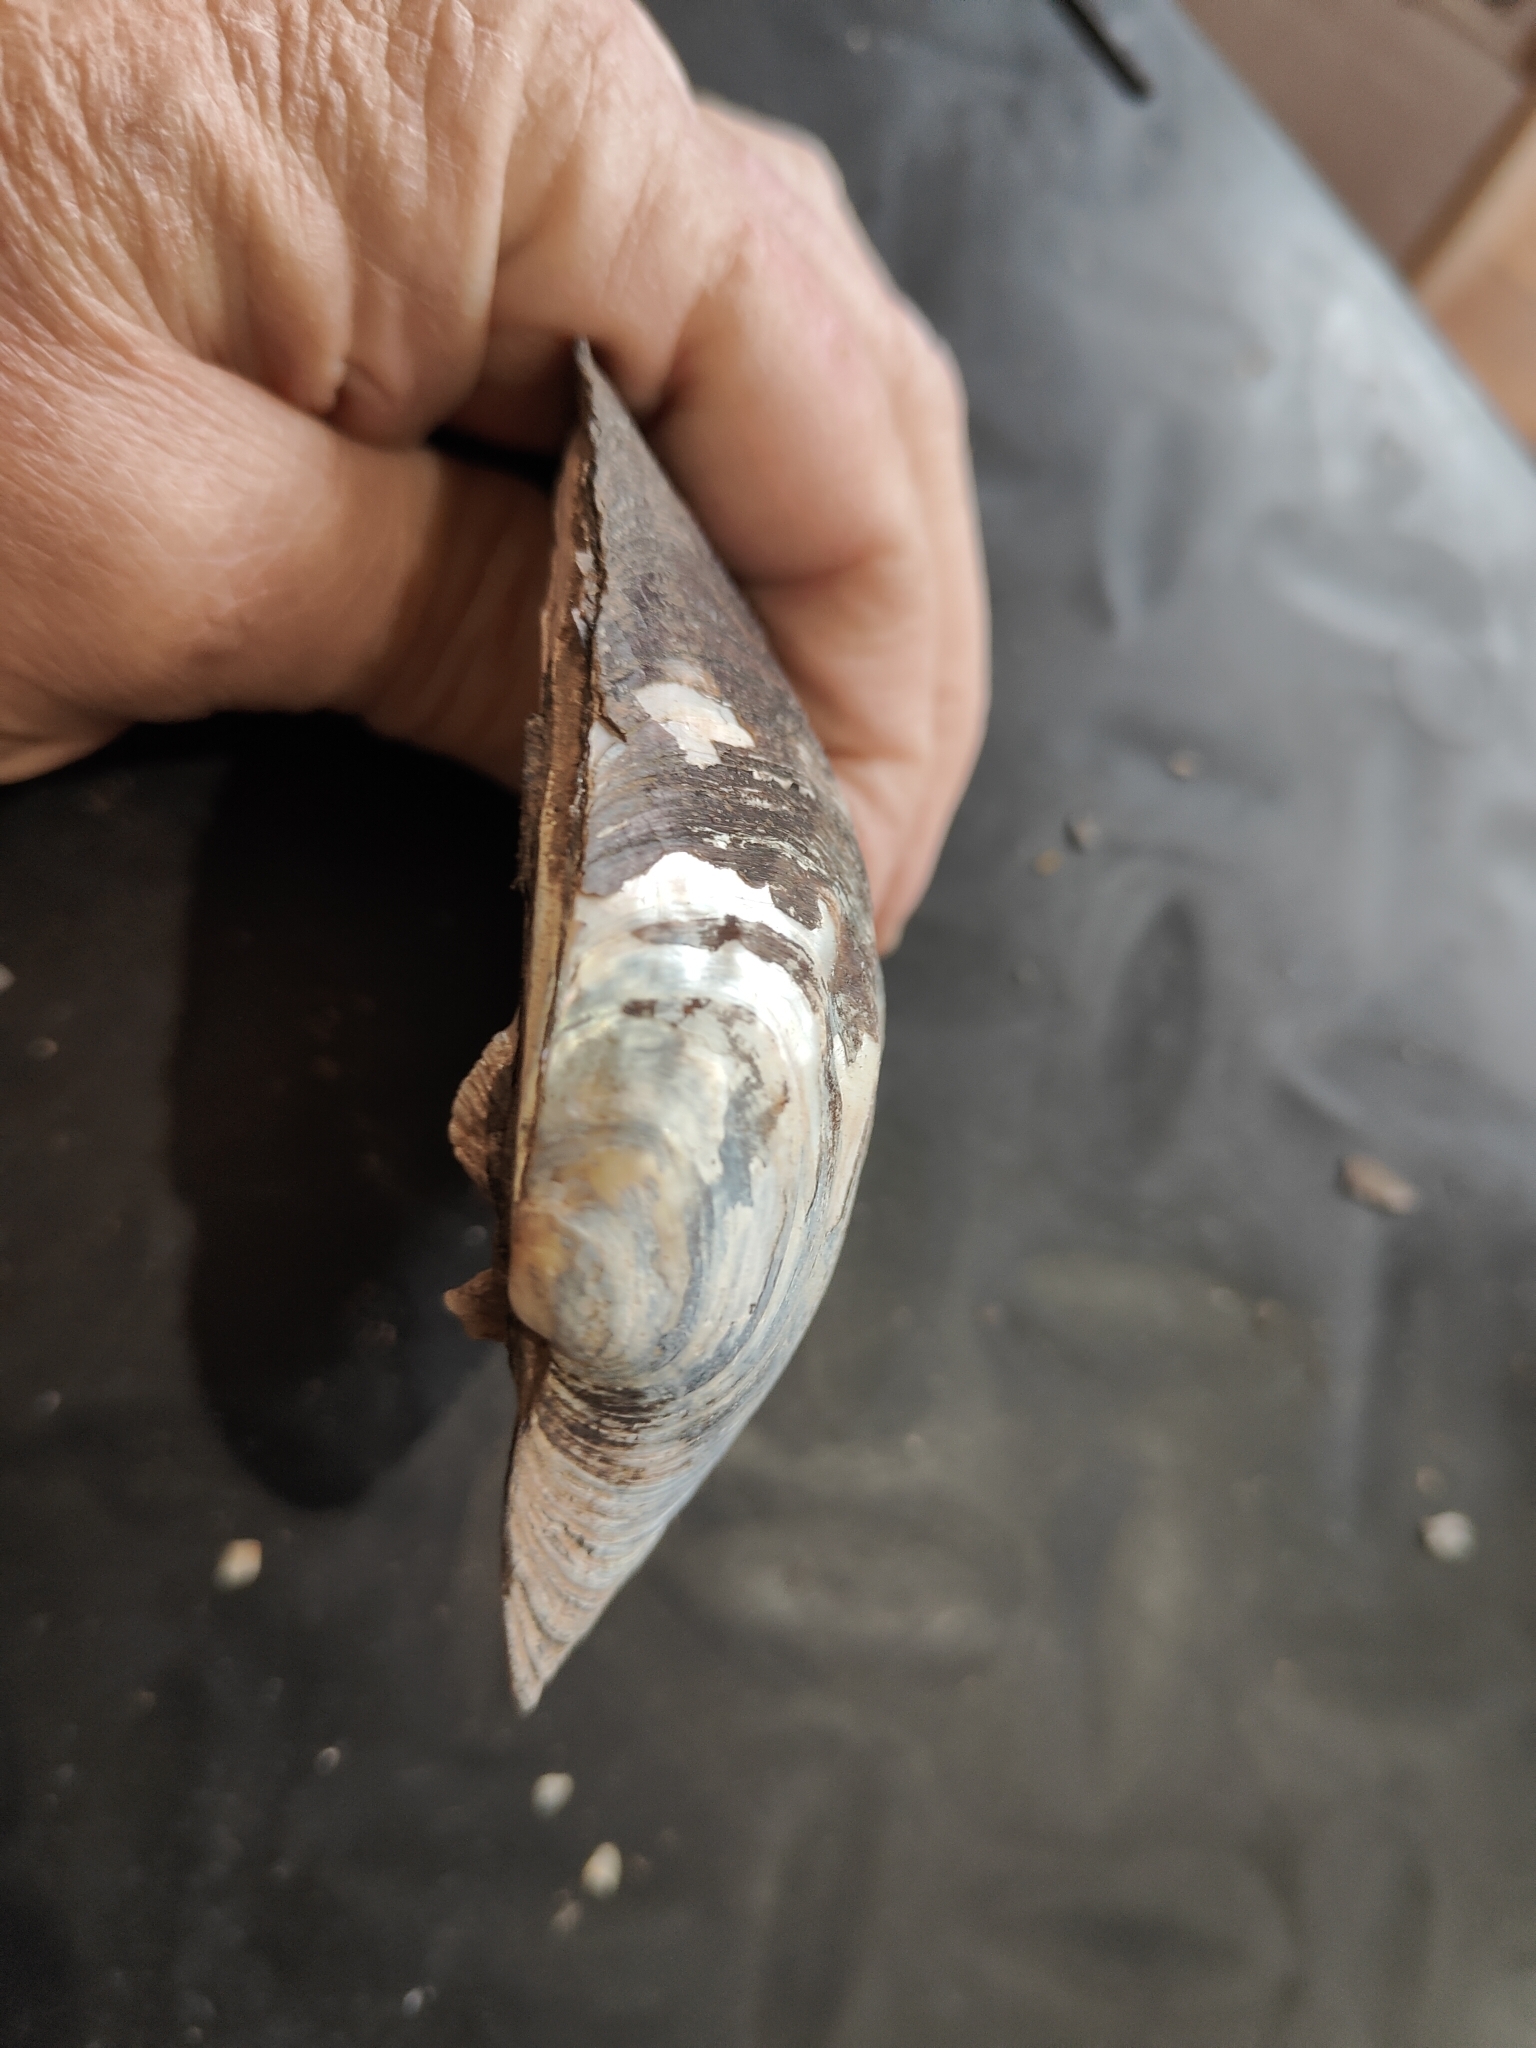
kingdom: Animalia
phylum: Mollusca
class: Bivalvia
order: Unionida
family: Unionidae
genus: Amblema
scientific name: Amblema plicata
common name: Threeridge
